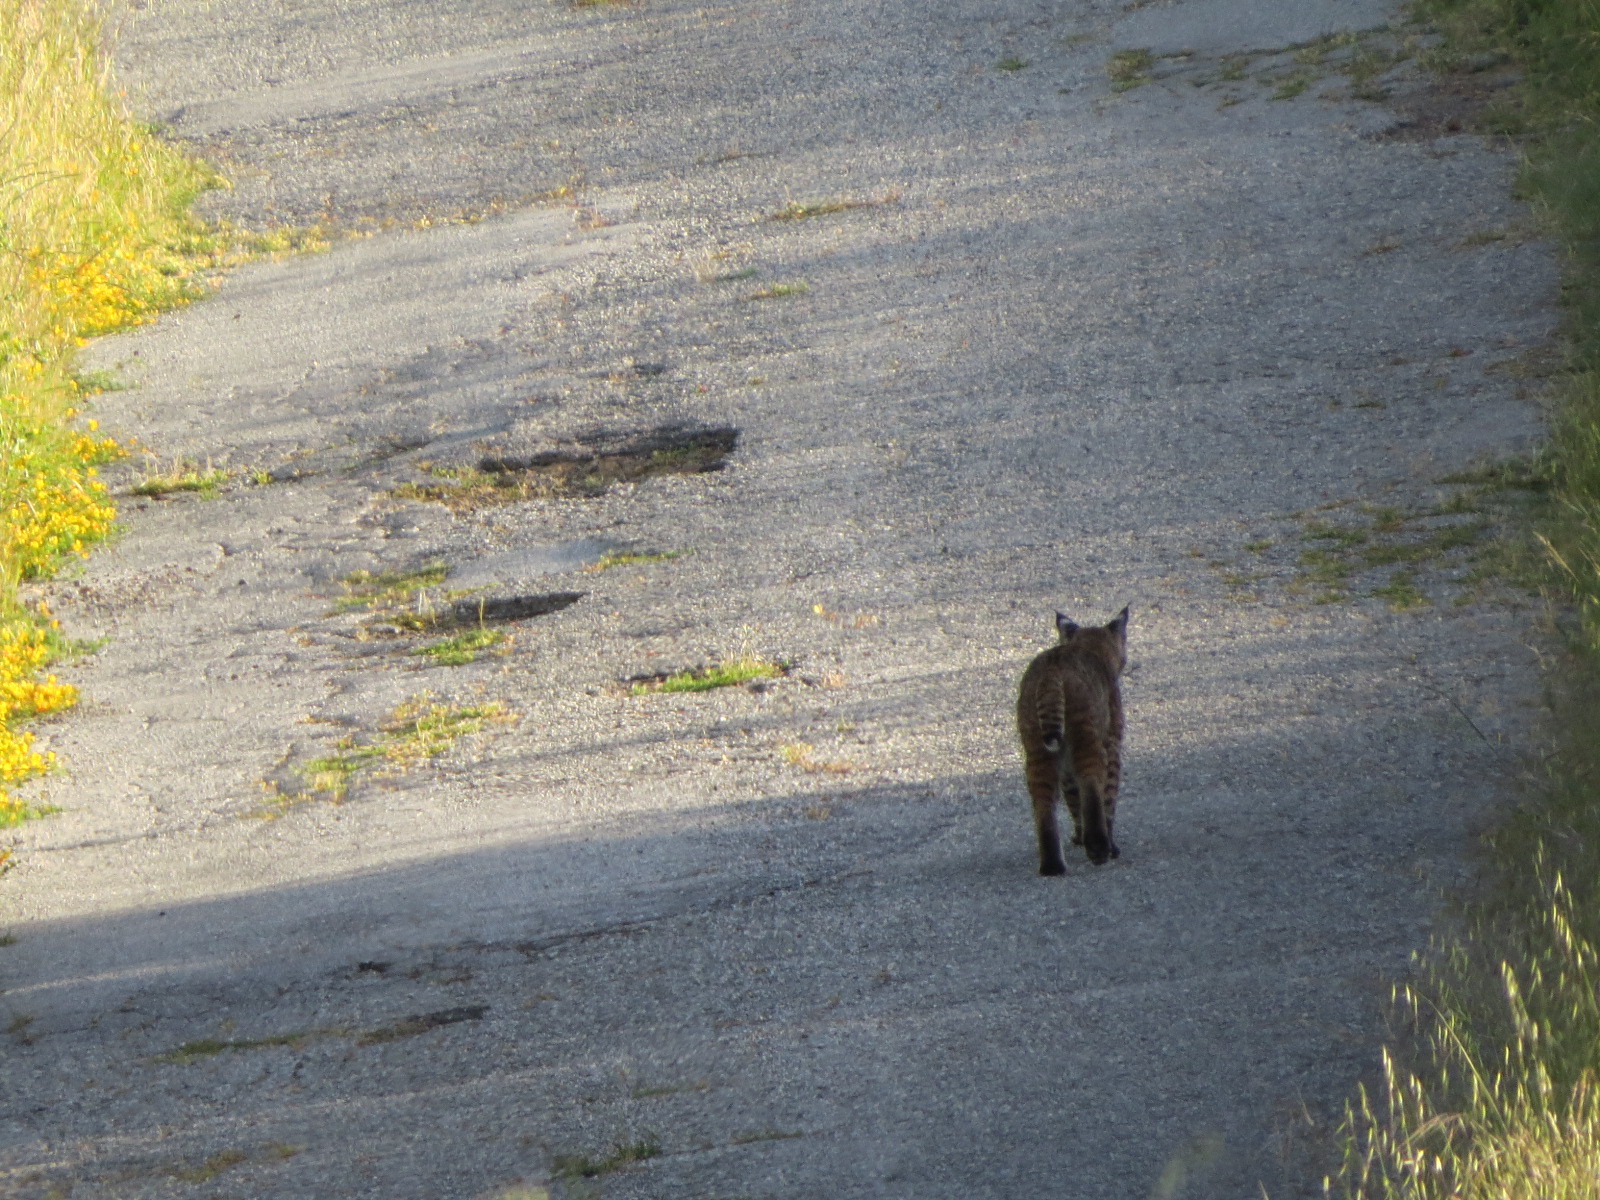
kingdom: Animalia
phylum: Chordata
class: Mammalia
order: Carnivora
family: Felidae
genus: Lynx
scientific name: Lynx rufus
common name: Bobcat
